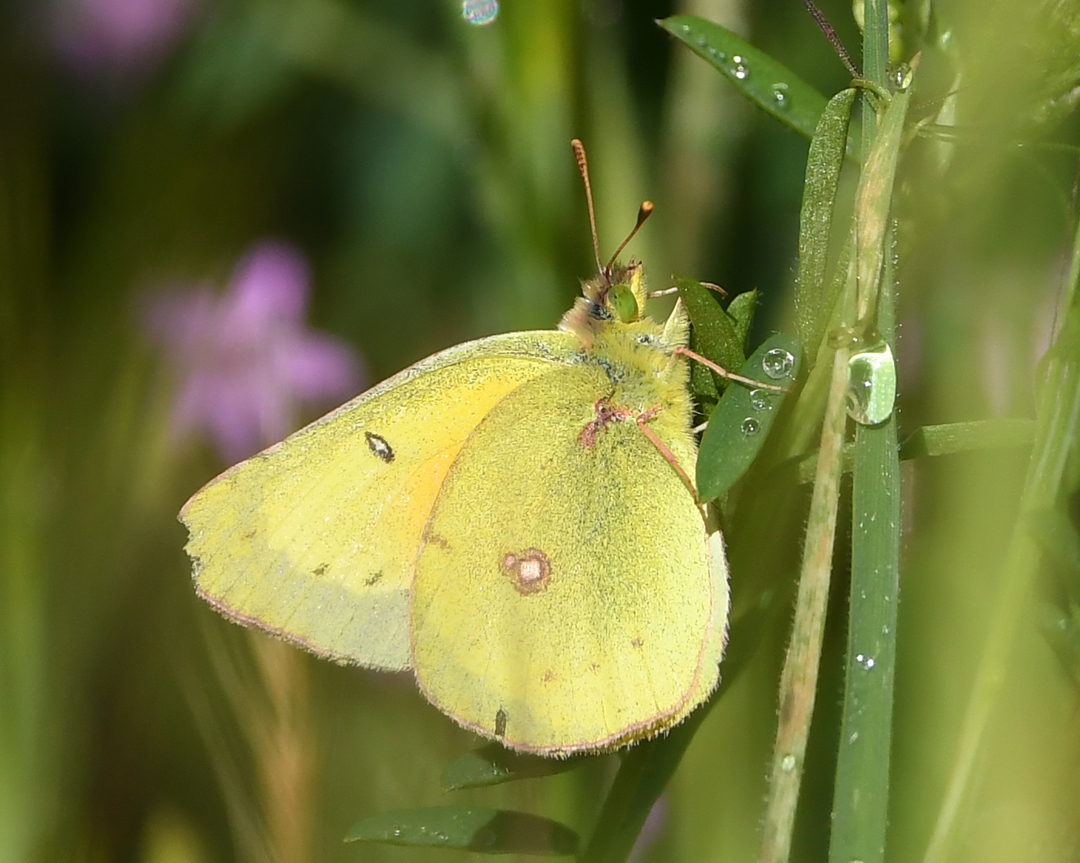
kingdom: Animalia
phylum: Arthropoda
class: Insecta
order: Lepidoptera
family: Pieridae
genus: Colias
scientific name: Colias eurytheme
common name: Alfalfa butterfly
